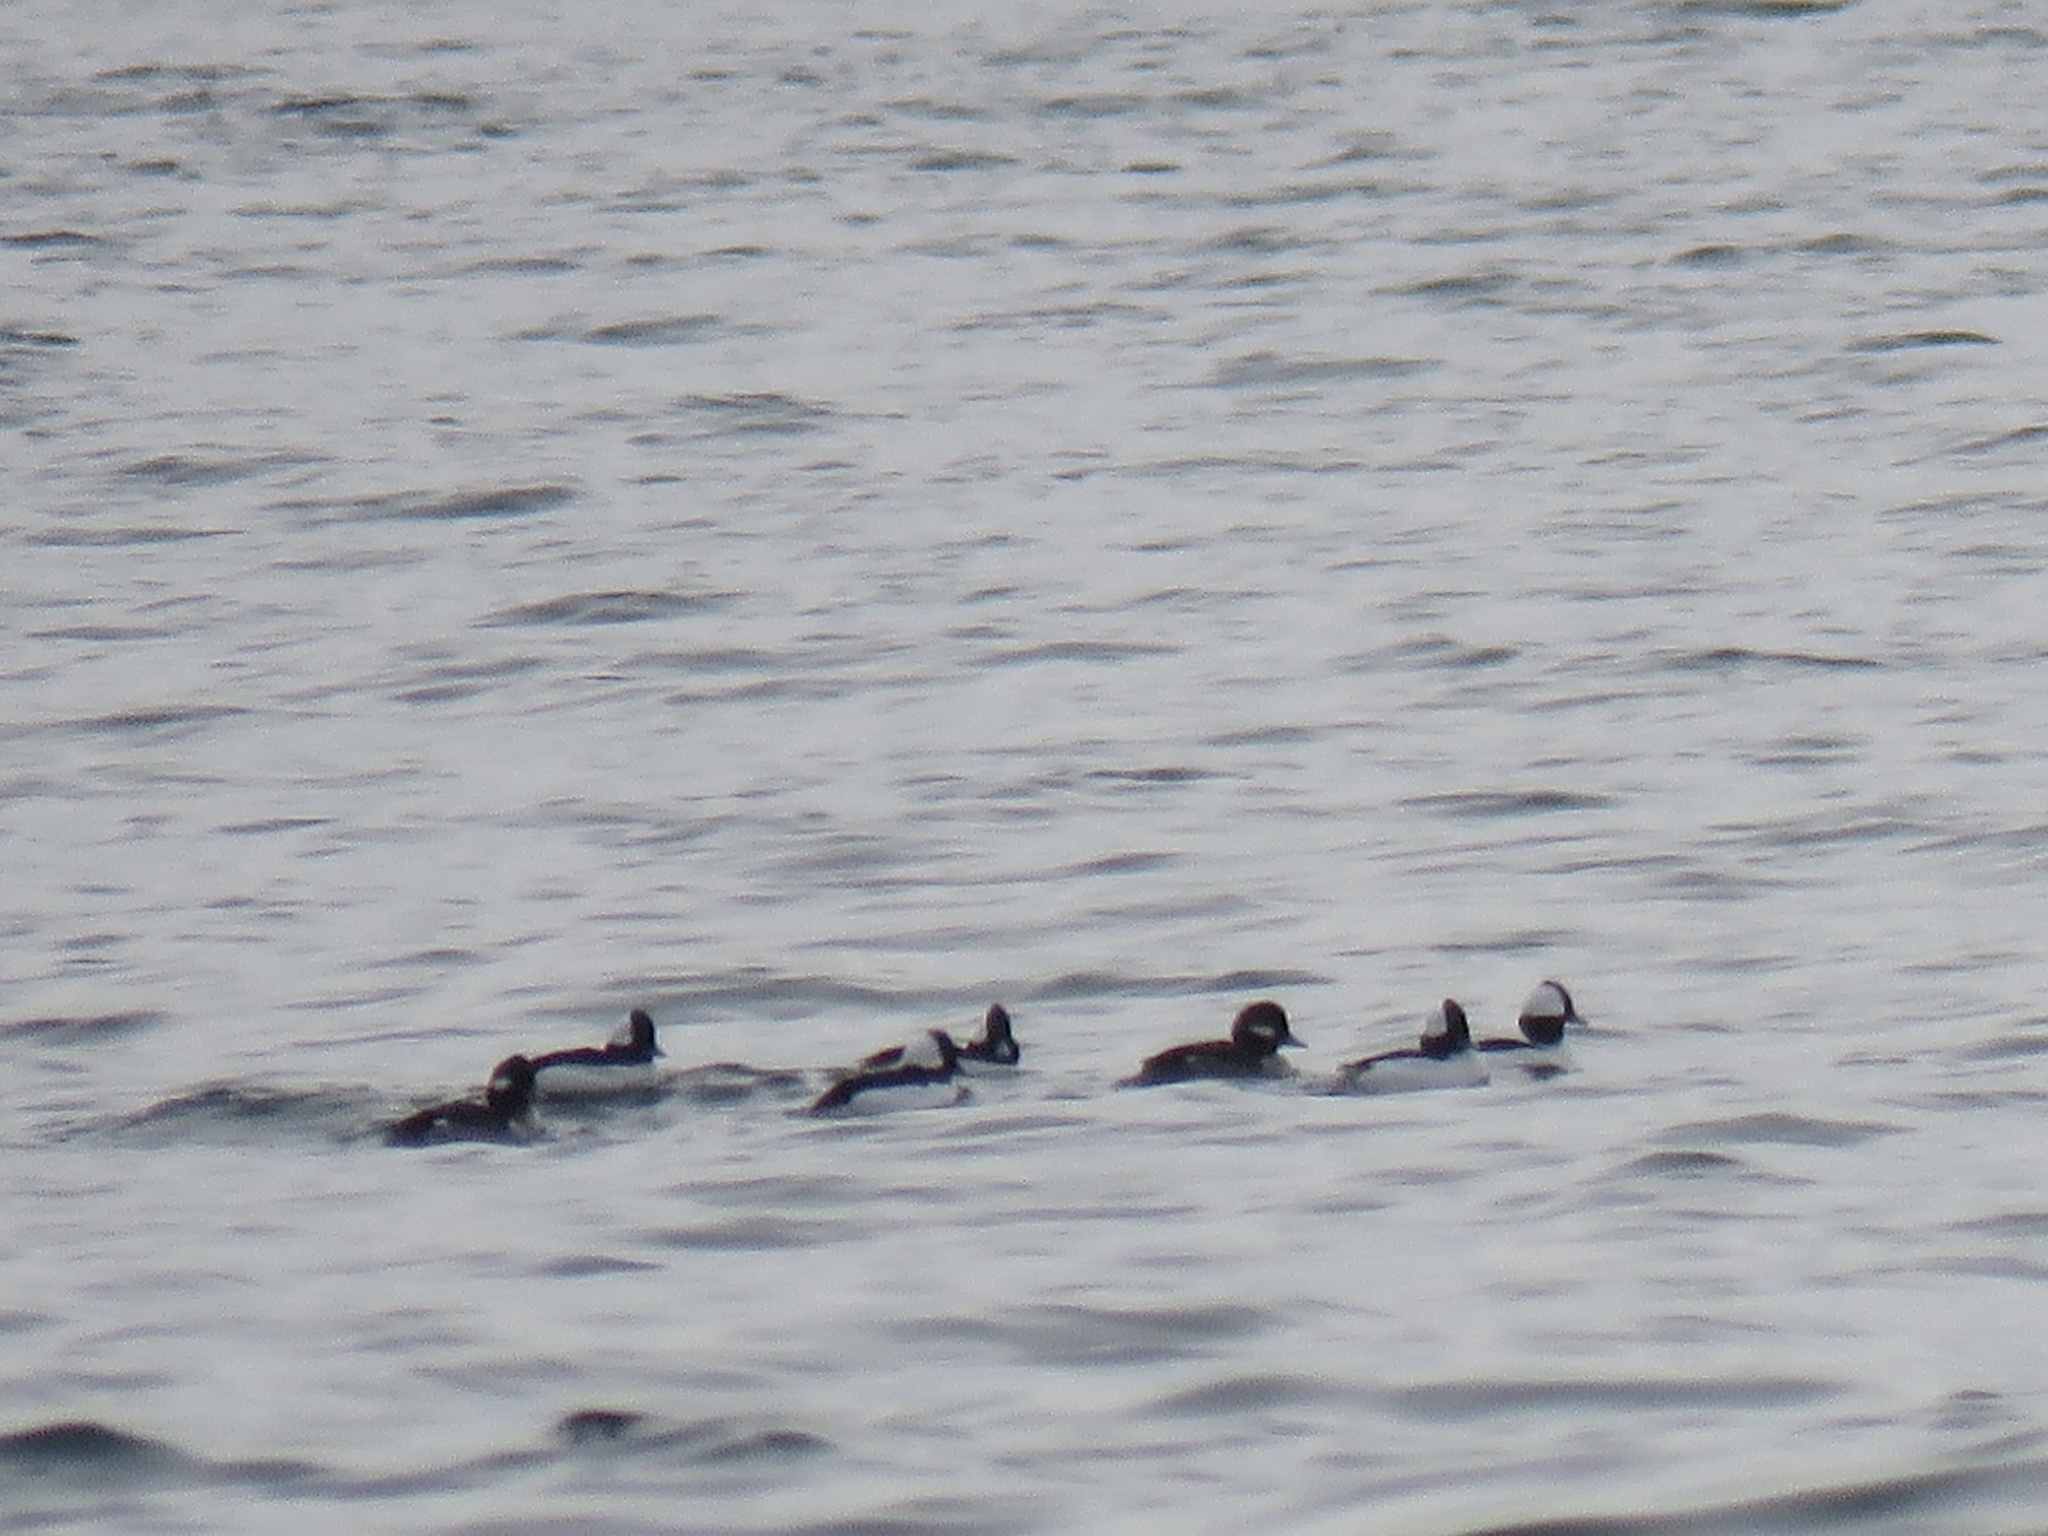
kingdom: Animalia
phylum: Chordata
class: Aves
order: Anseriformes
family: Anatidae
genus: Bucephala
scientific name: Bucephala albeola
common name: Bufflehead
